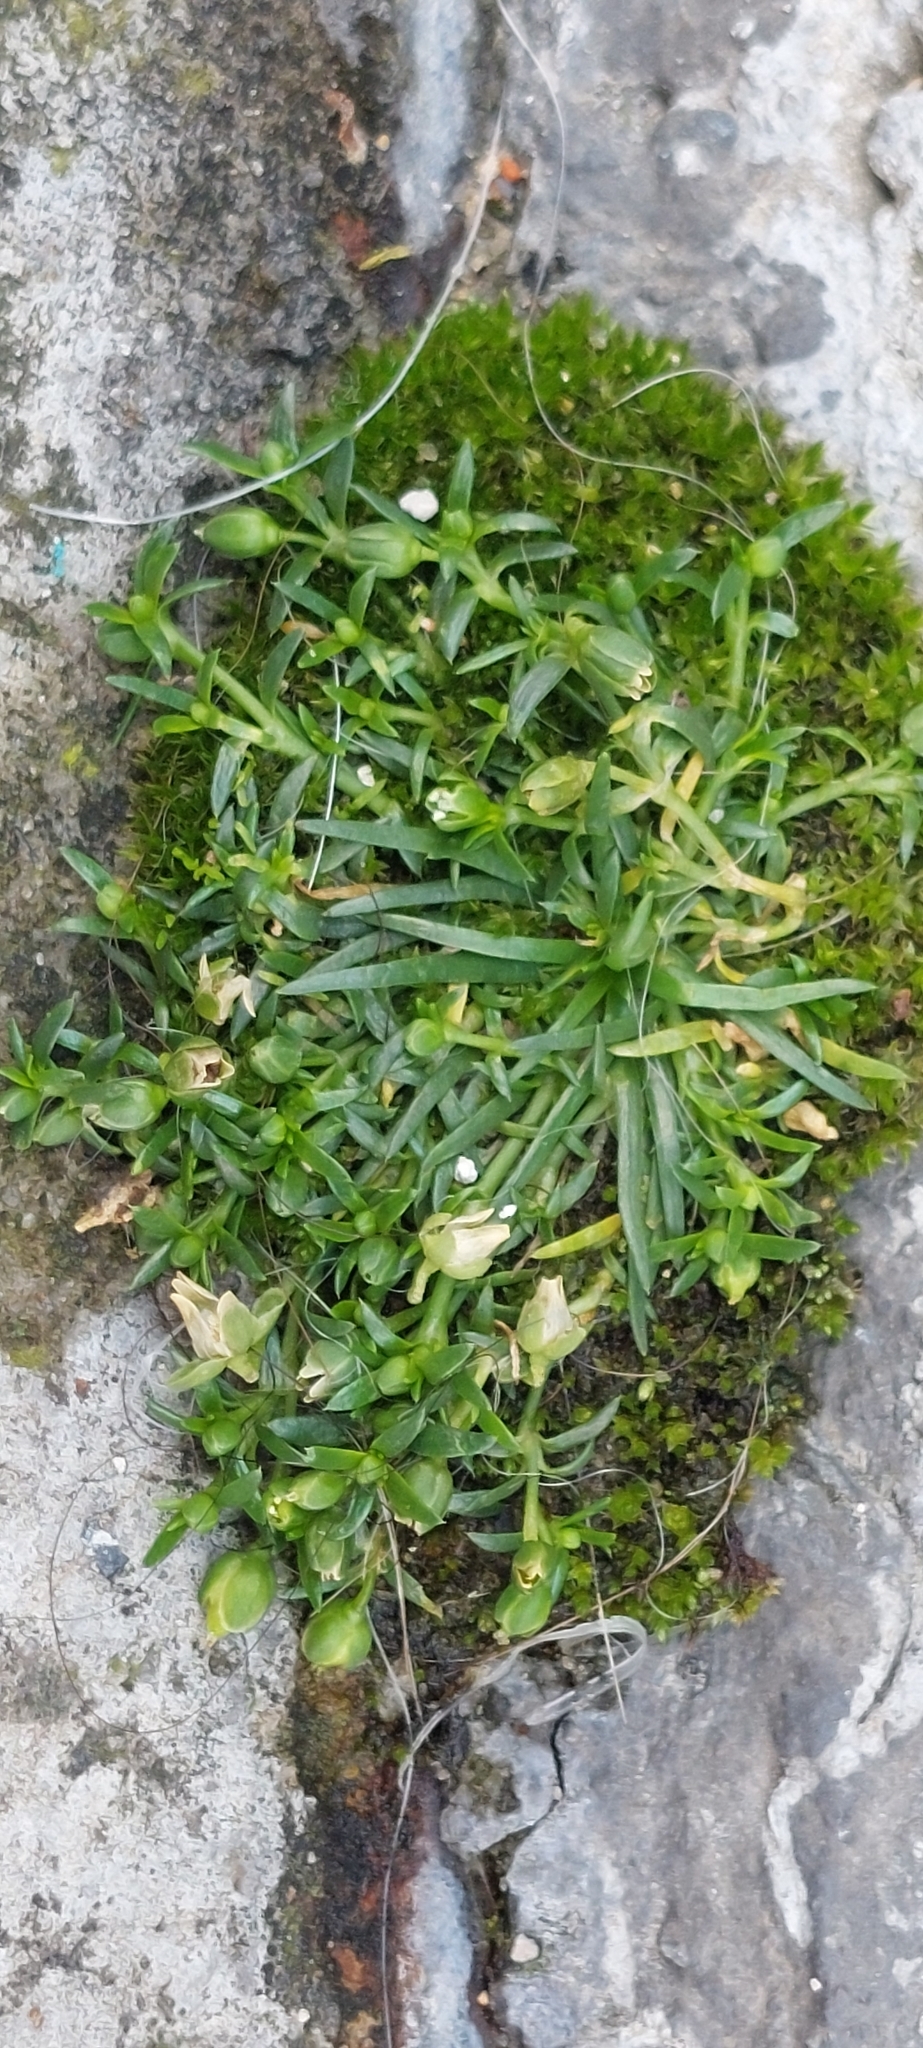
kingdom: Plantae
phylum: Tracheophyta
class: Magnoliopsida
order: Caryophyllales
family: Caryophyllaceae
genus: Sagina
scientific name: Sagina procumbens
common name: Procumbent pearlwort
